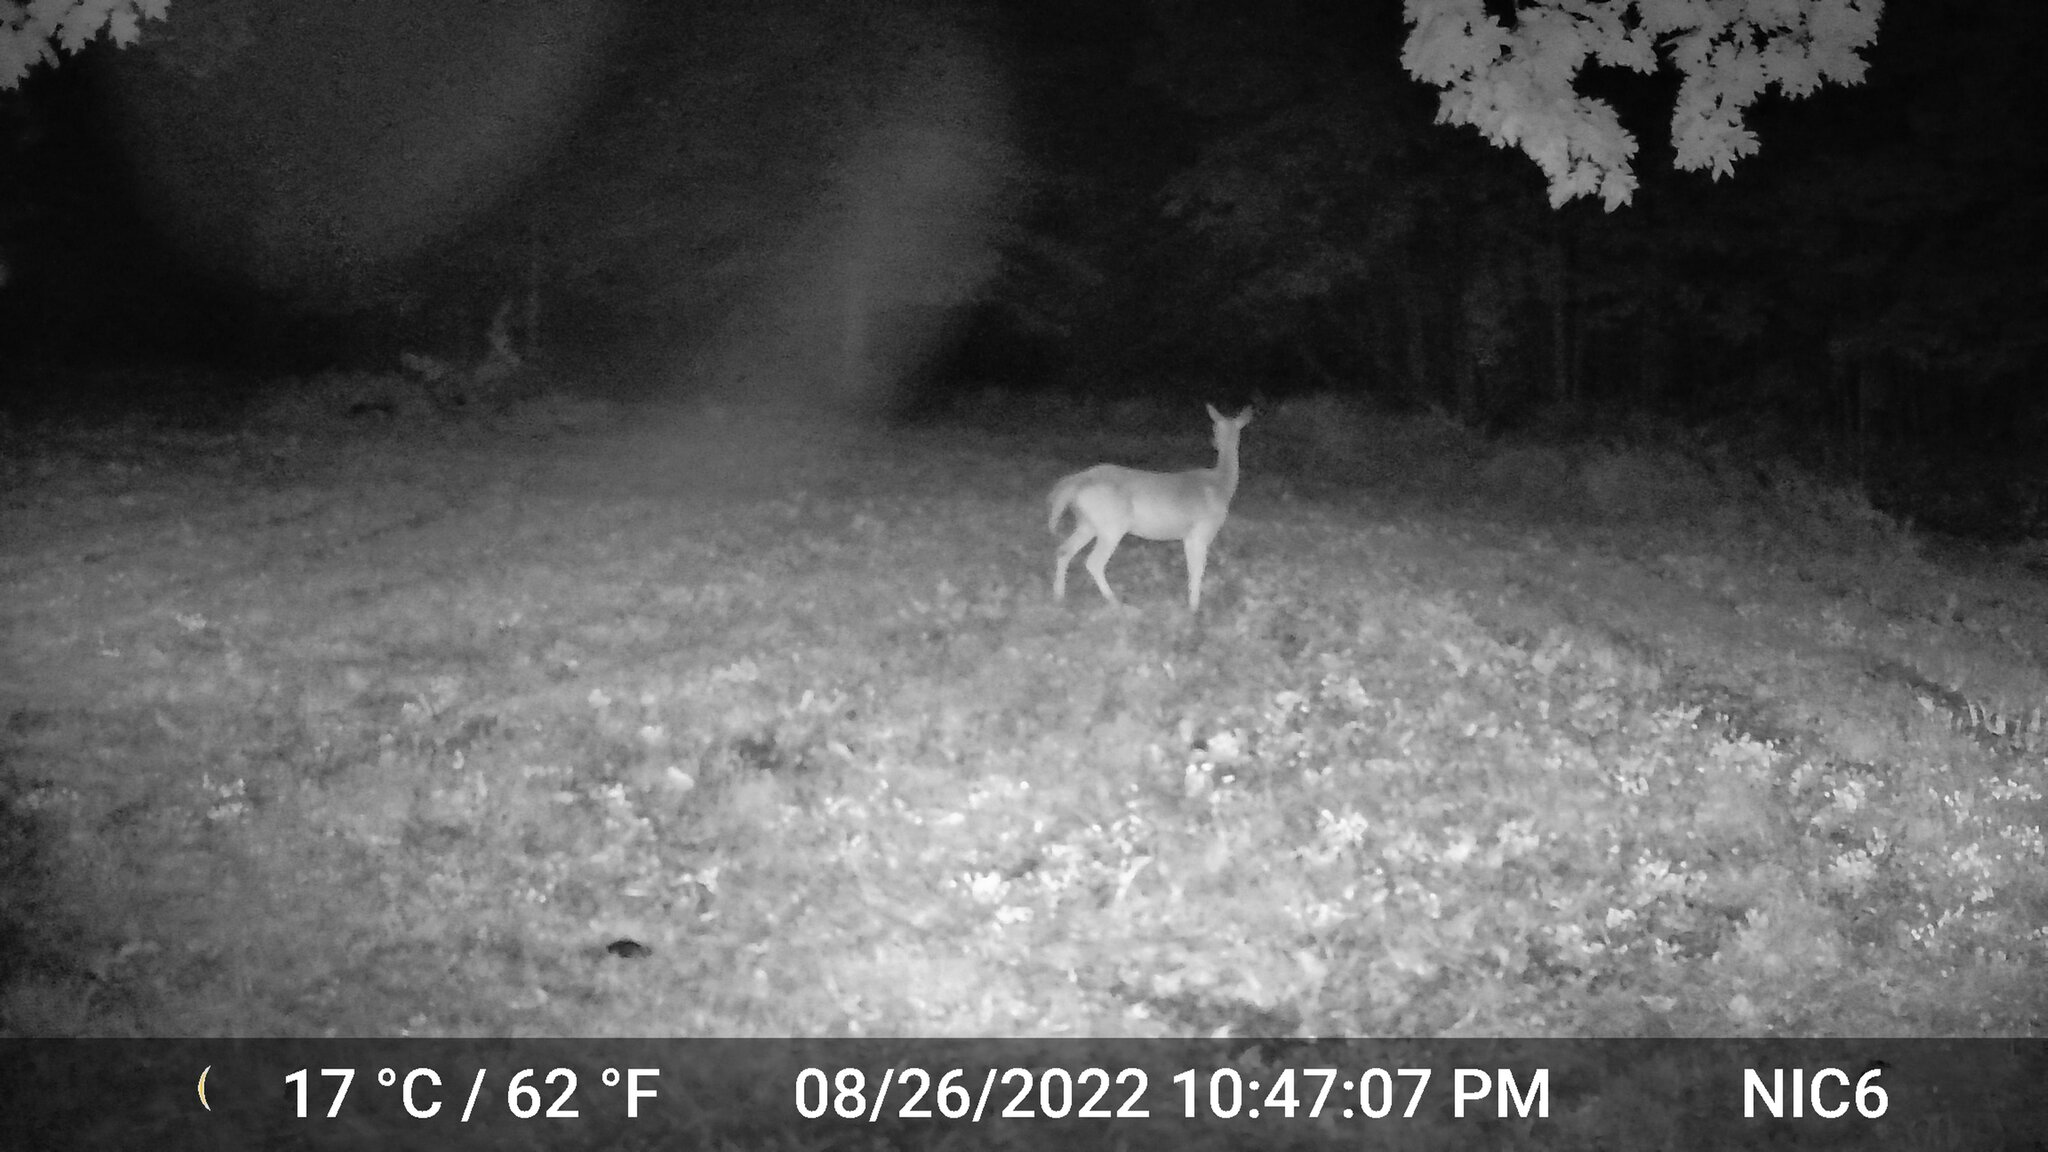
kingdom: Animalia
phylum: Chordata
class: Mammalia
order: Artiodactyla
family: Cervidae
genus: Odocoileus
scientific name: Odocoileus virginianus
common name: White-tailed deer
